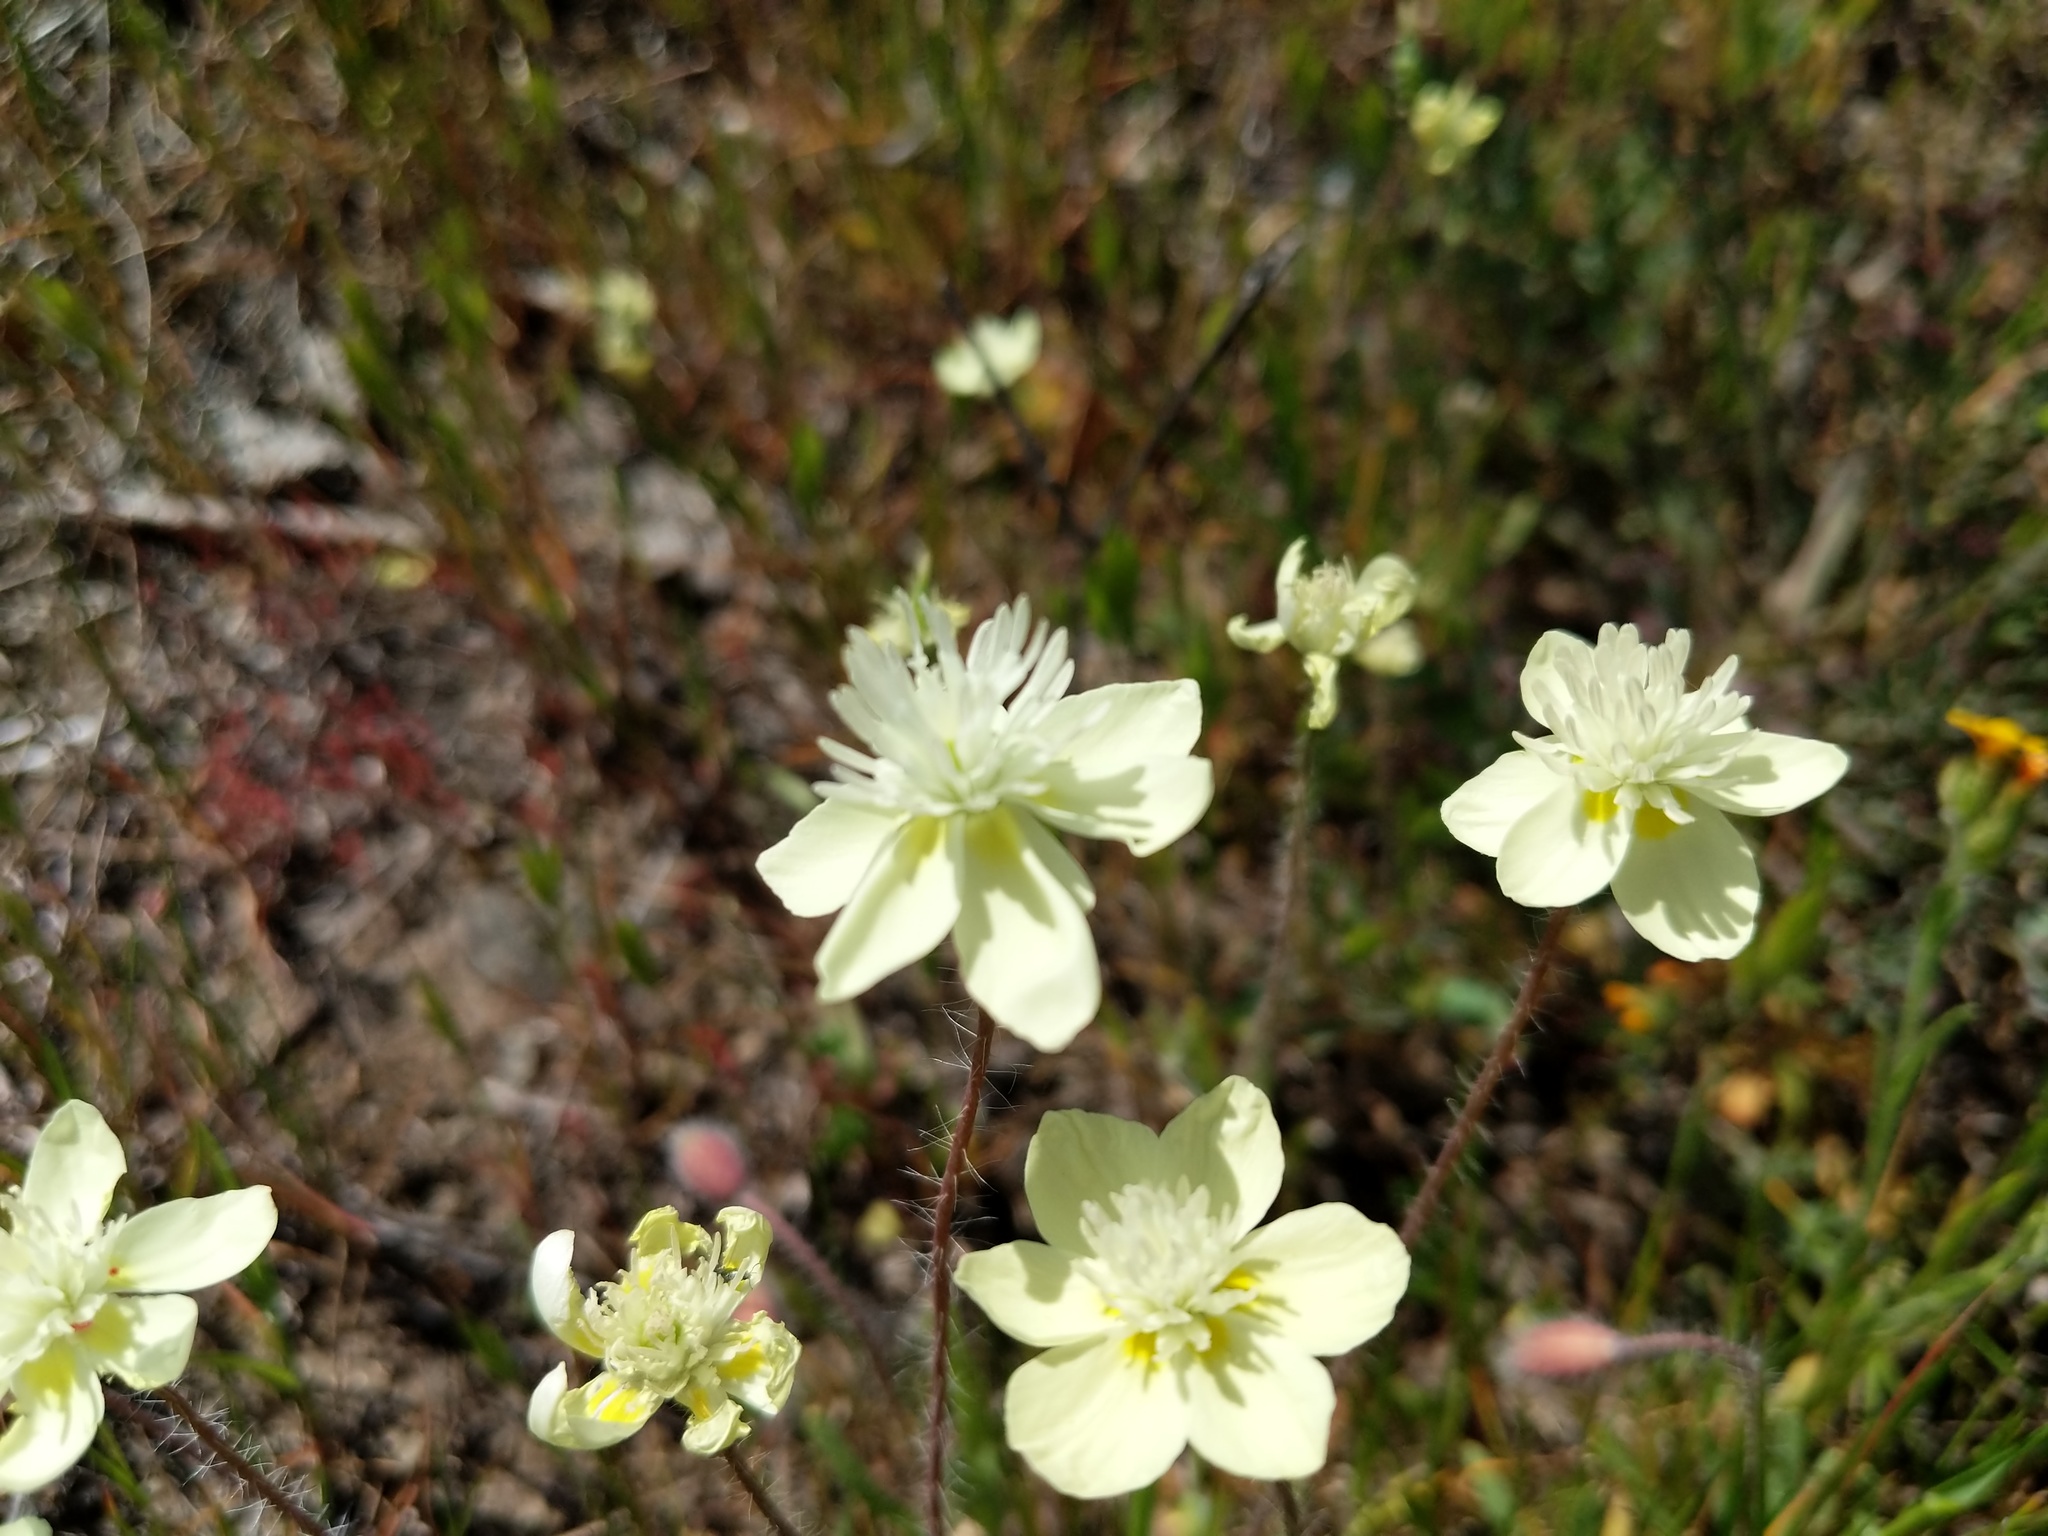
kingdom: Plantae
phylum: Tracheophyta
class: Magnoliopsida
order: Ranunculales
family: Papaveraceae
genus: Platystemon
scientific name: Platystemon californicus
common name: Cream-cups
